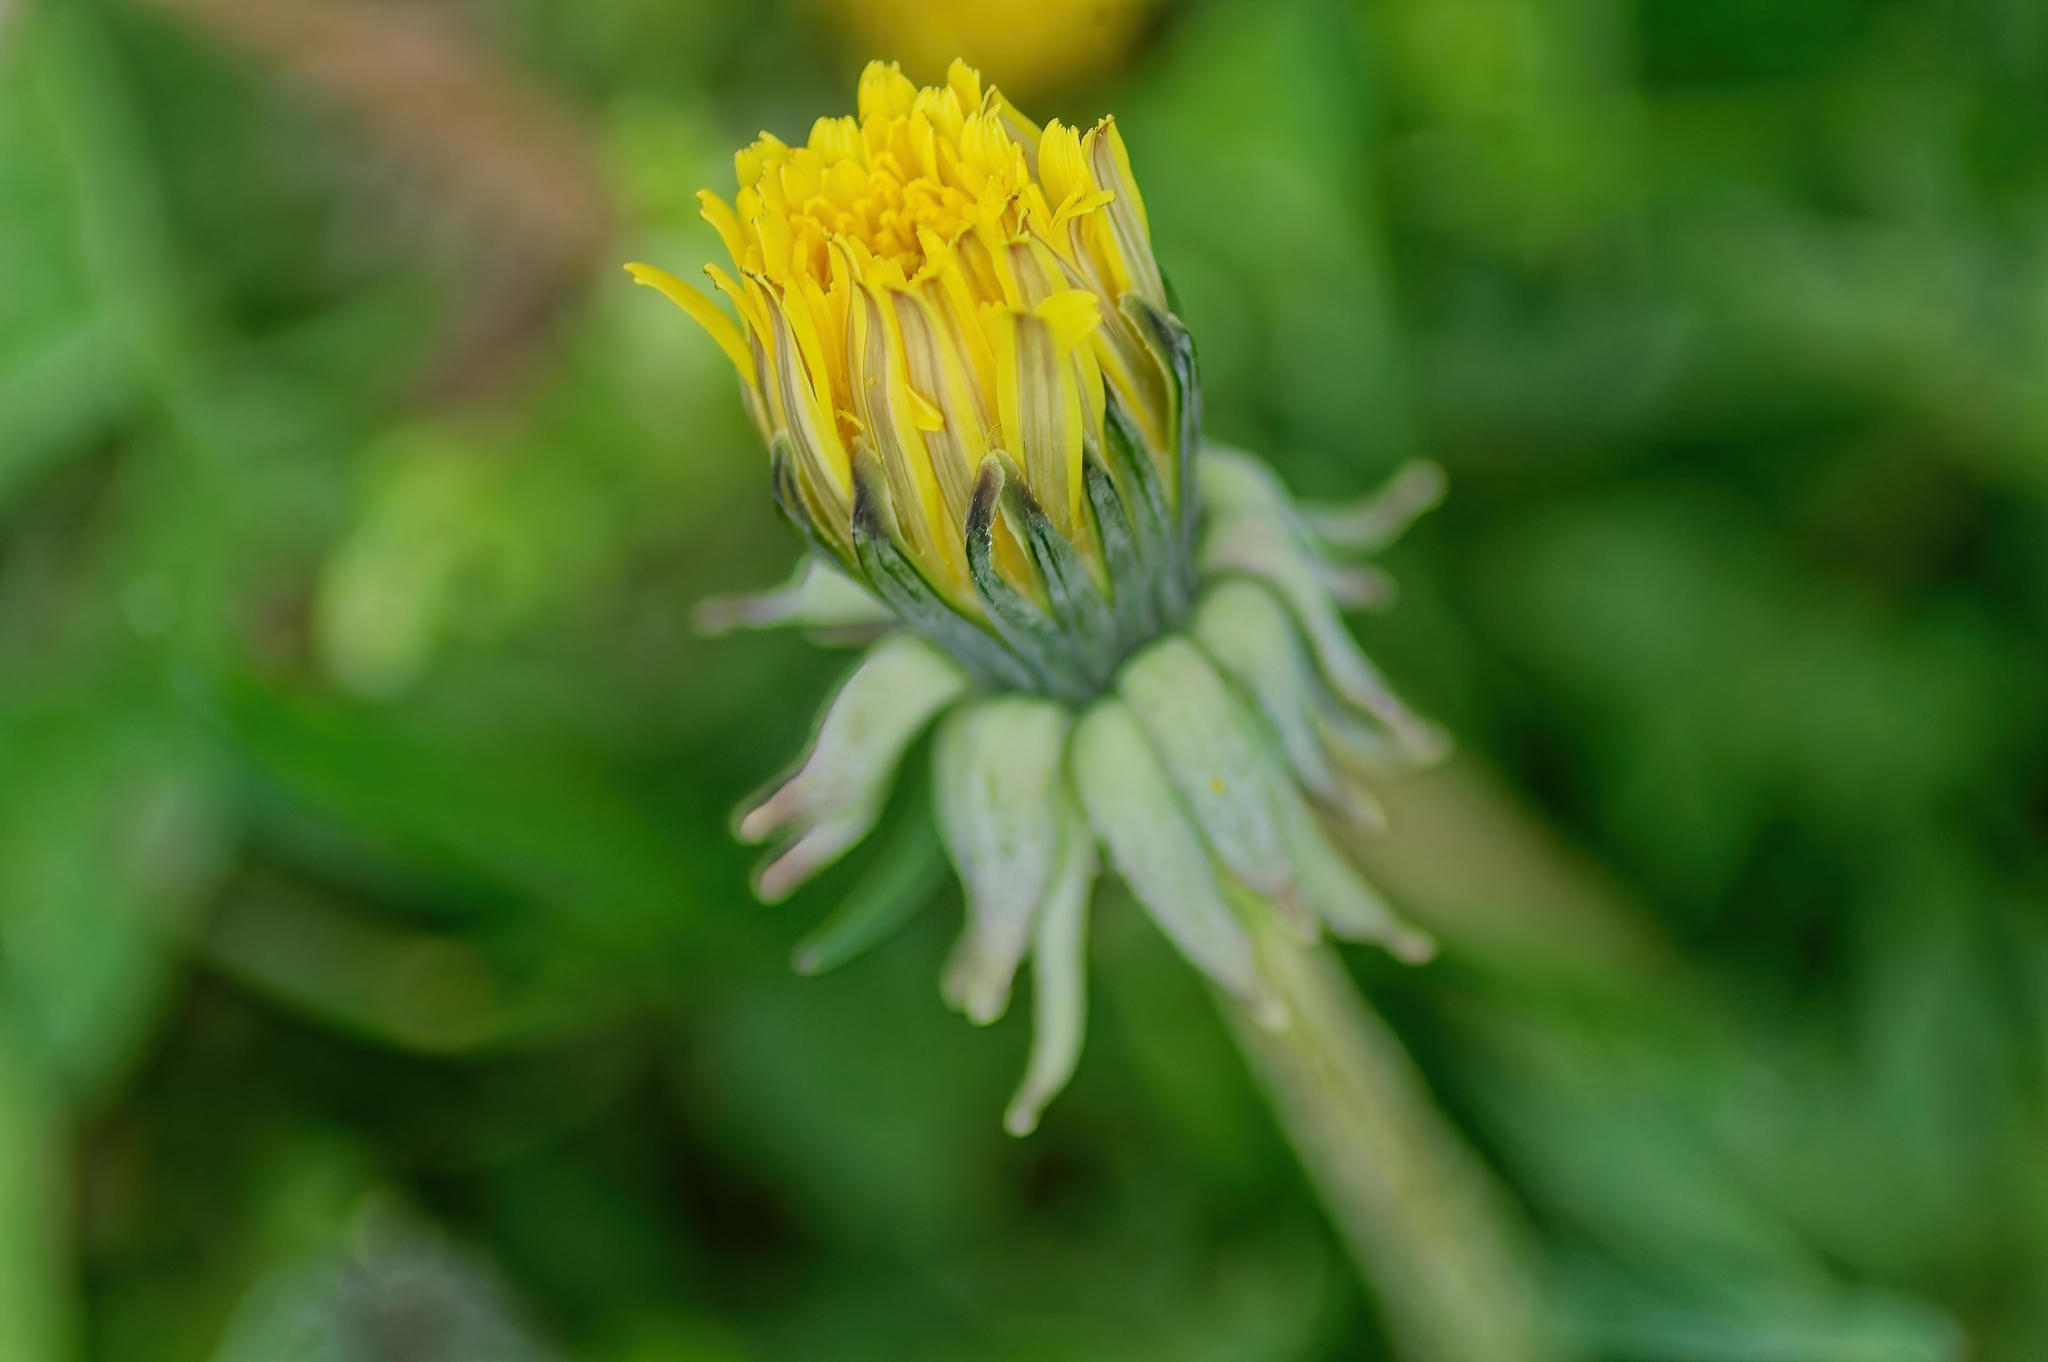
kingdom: Plantae
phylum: Tracheophyta
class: Magnoliopsida
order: Asterales
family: Asteraceae
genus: Taraxacum
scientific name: Taraxacum officinale
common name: Common dandelion
